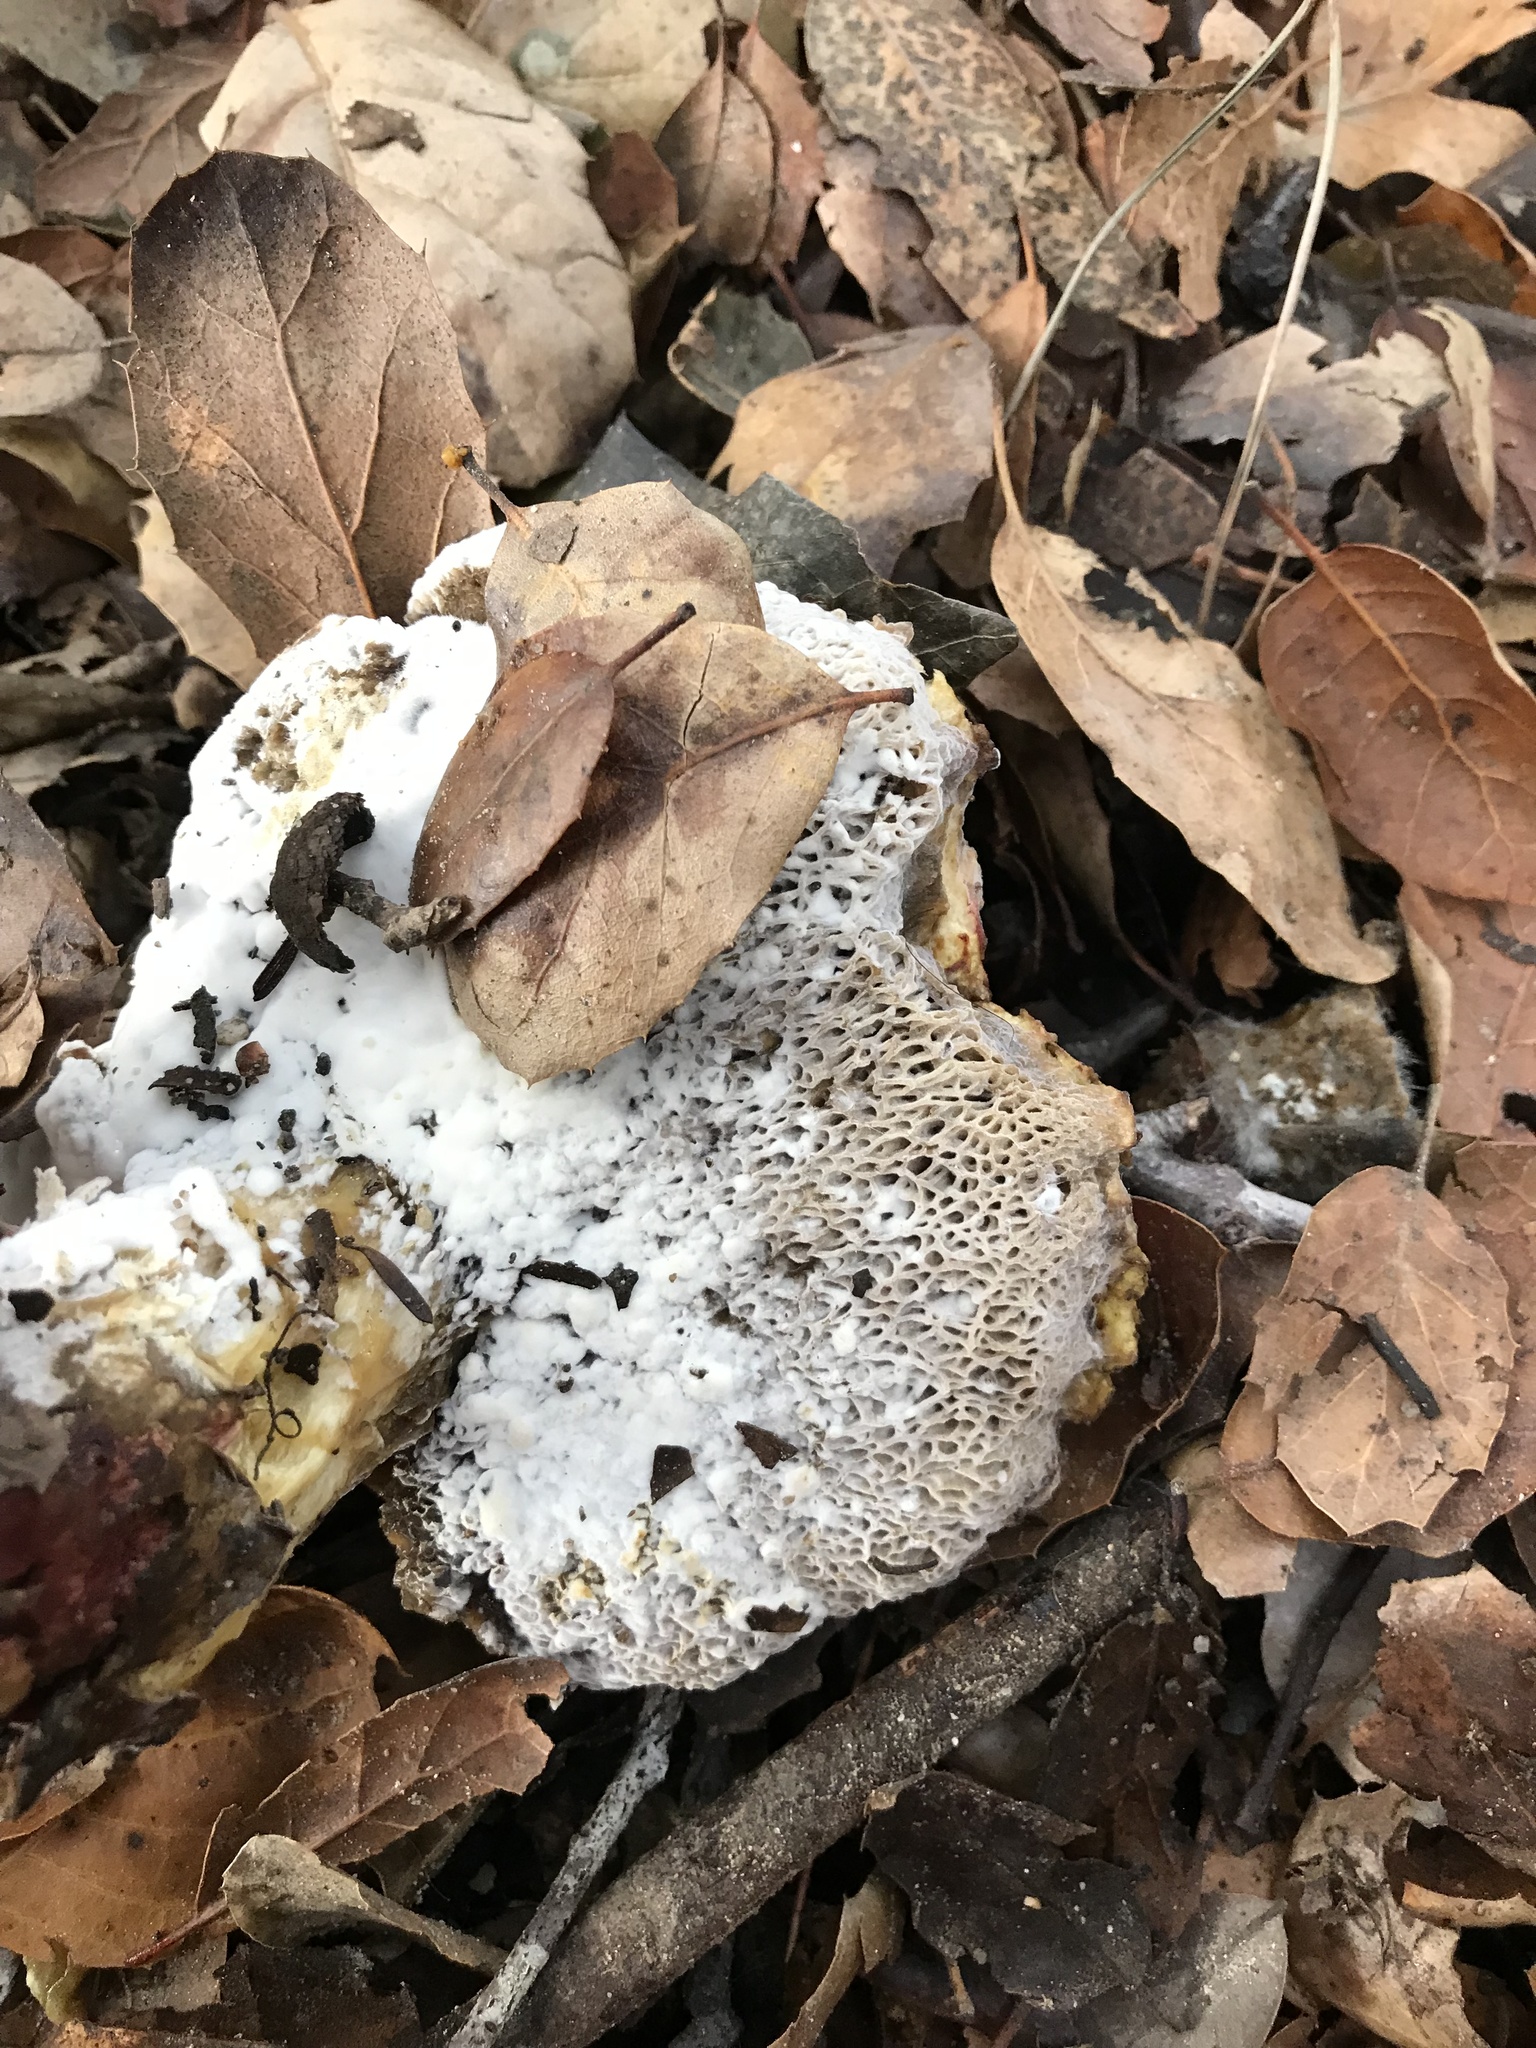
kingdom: Fungi
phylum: Ascomycota
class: Sordariomycetes
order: Hypocreales
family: Hypocreaceae
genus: Hypomyces
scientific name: Hypomyces chrysospermus
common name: Bolete mould
